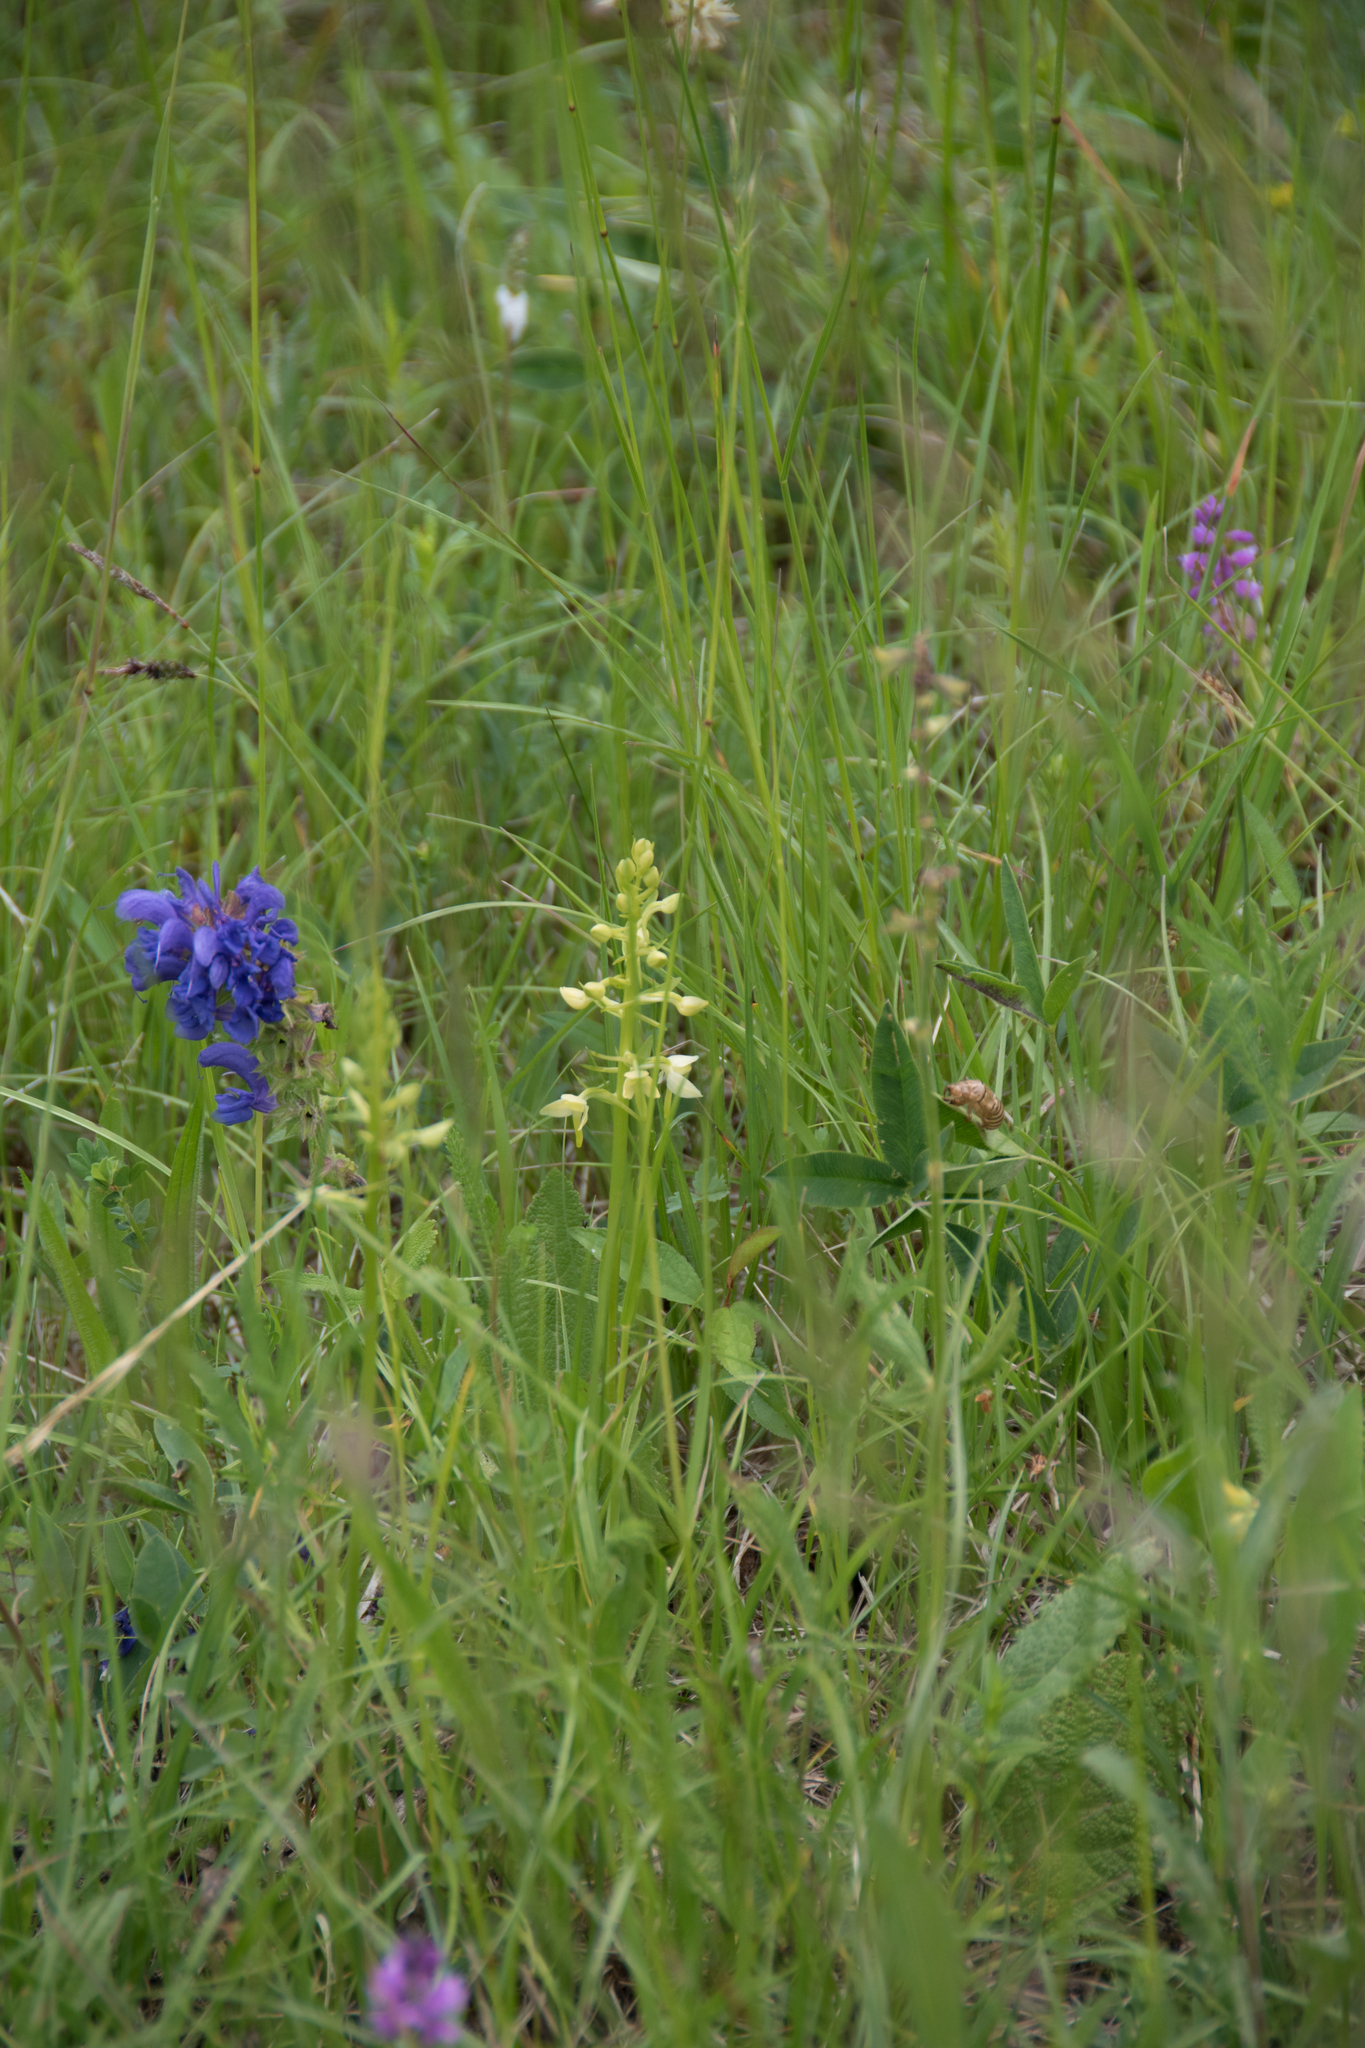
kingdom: Plantae
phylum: Tracheophyta
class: Liliopsida
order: Asparagales
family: Orchidaceae
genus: Platanthera
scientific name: Platanthera bifolia
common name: Lesser butterfly-orchid
